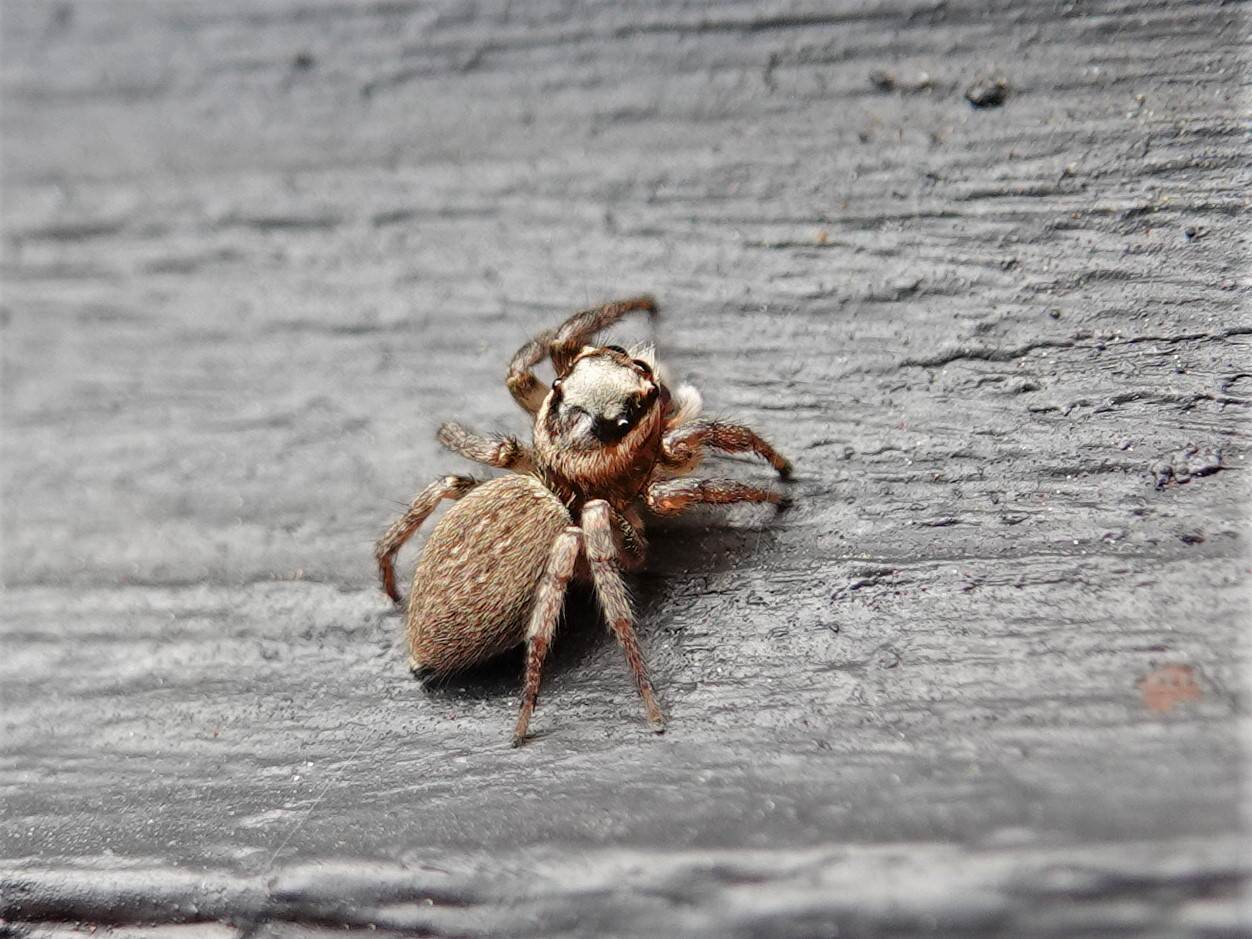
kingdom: Animalia
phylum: Arthropoda
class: Arachnida
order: Araneae
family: Salticidae
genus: Maratus
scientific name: Maratus griseus
